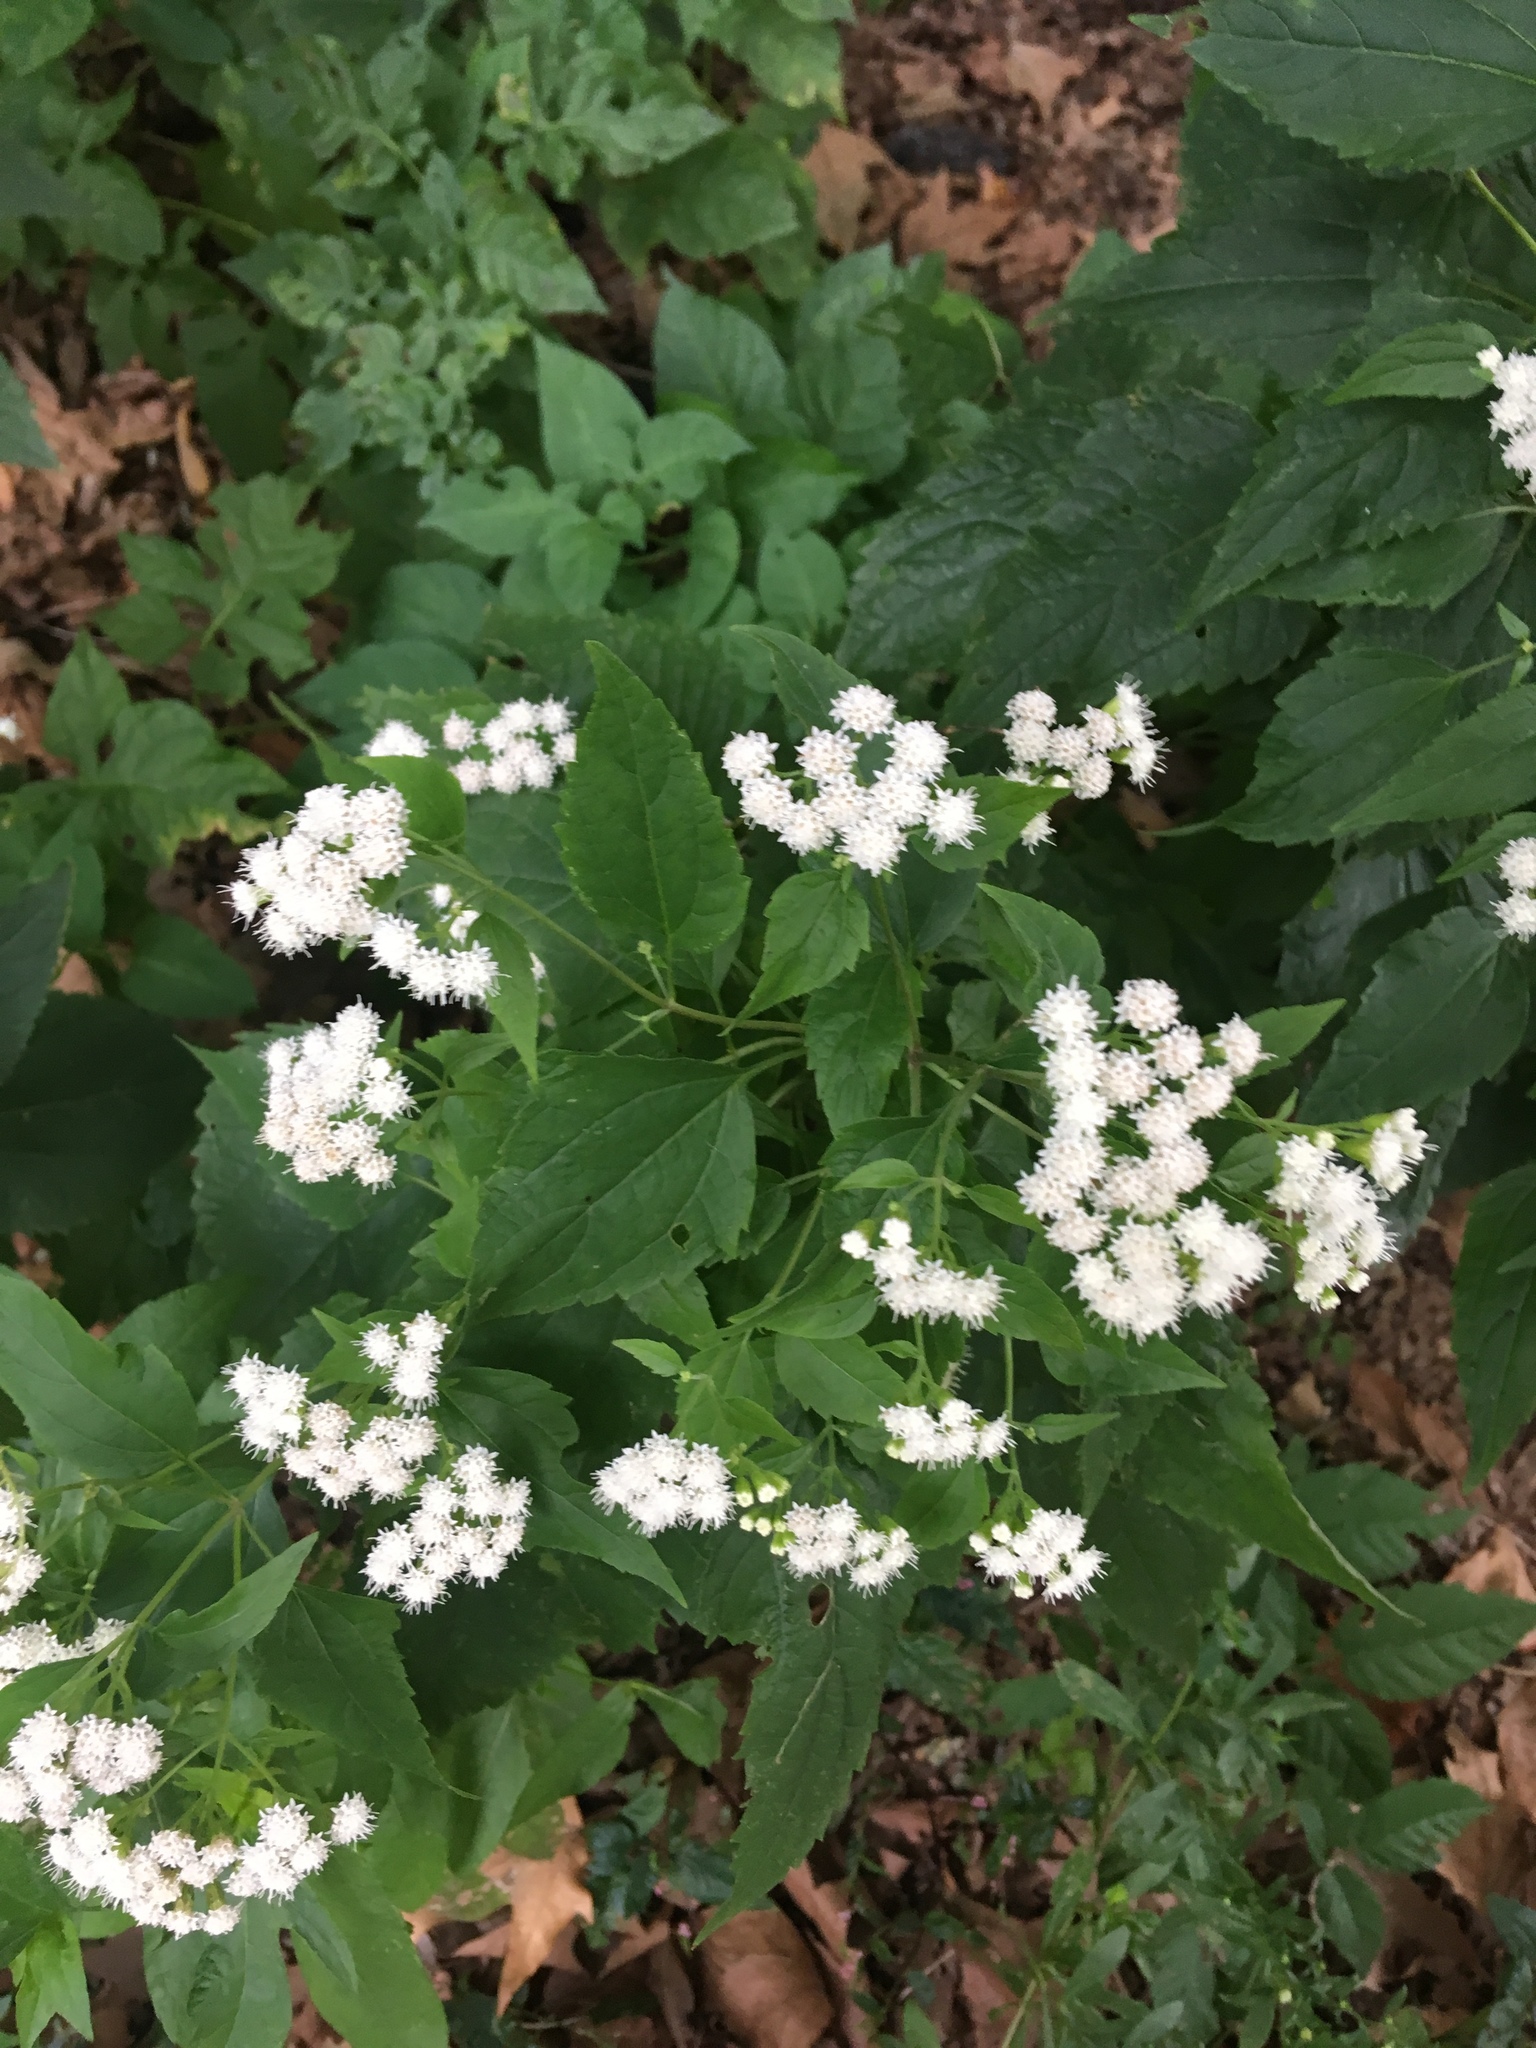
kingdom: Plantae
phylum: Tracheophyta
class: Magnoliopsida
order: Asterales
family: Asteraceae
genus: Ageratina
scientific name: Ageratina altissima
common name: White snakeroot
